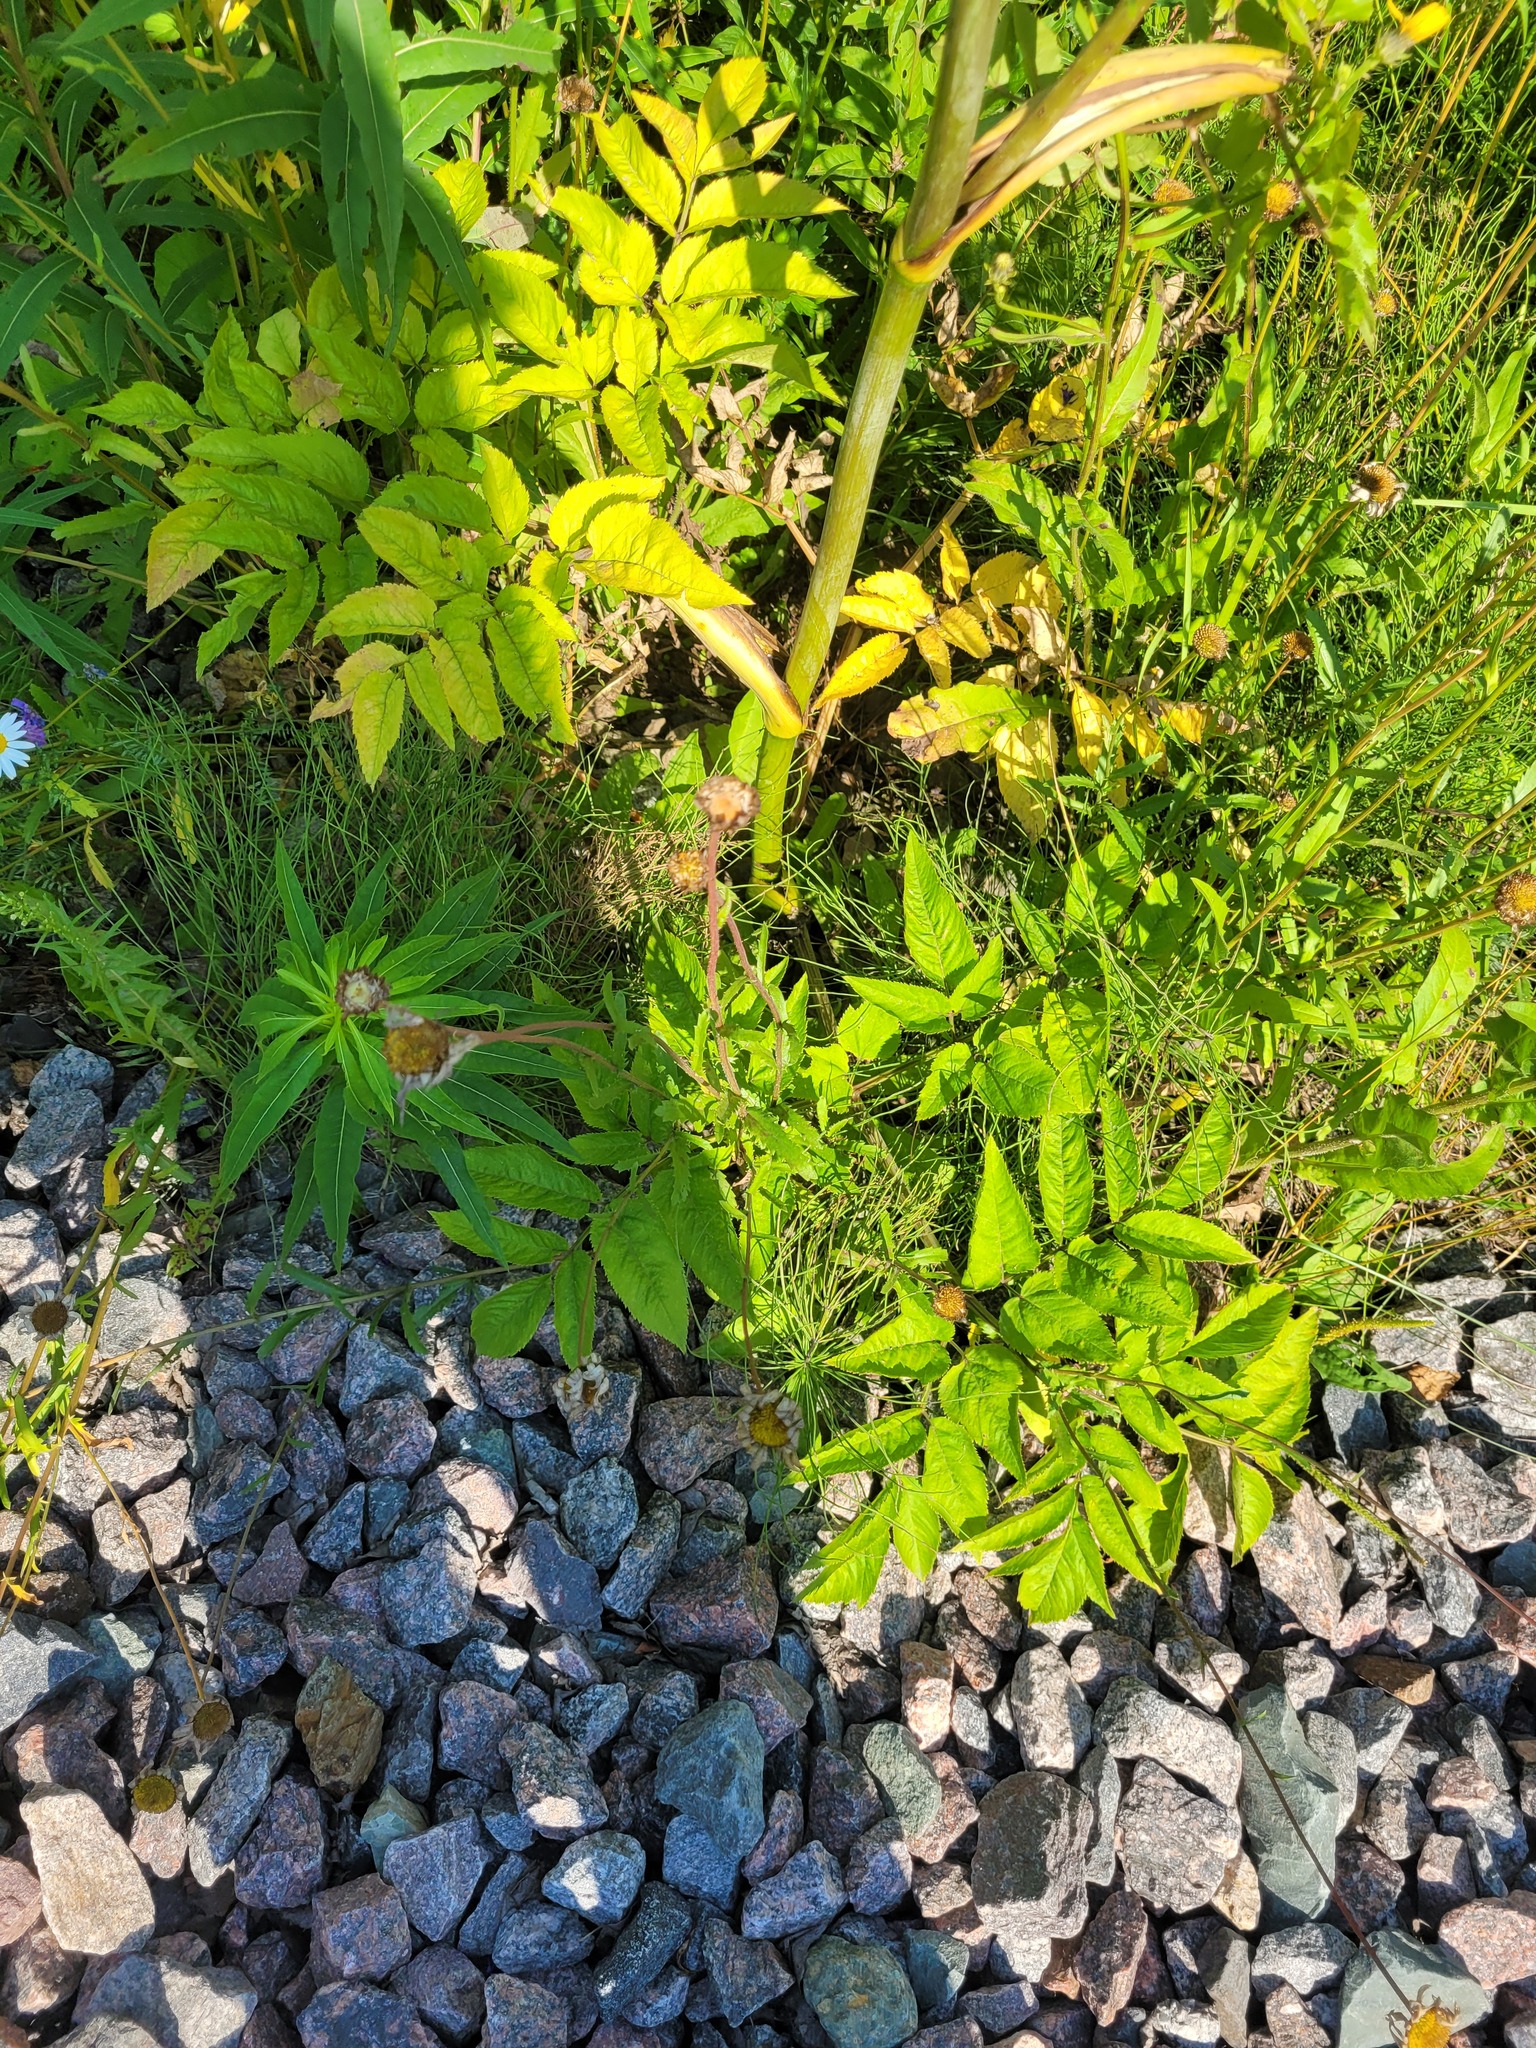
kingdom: Plantae
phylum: Tracheophyta
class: Magnoliopsida
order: Asterales
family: Asteraceae
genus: Leucanthemum
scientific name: Leucanthemum vulgare
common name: Oxeye daisy
